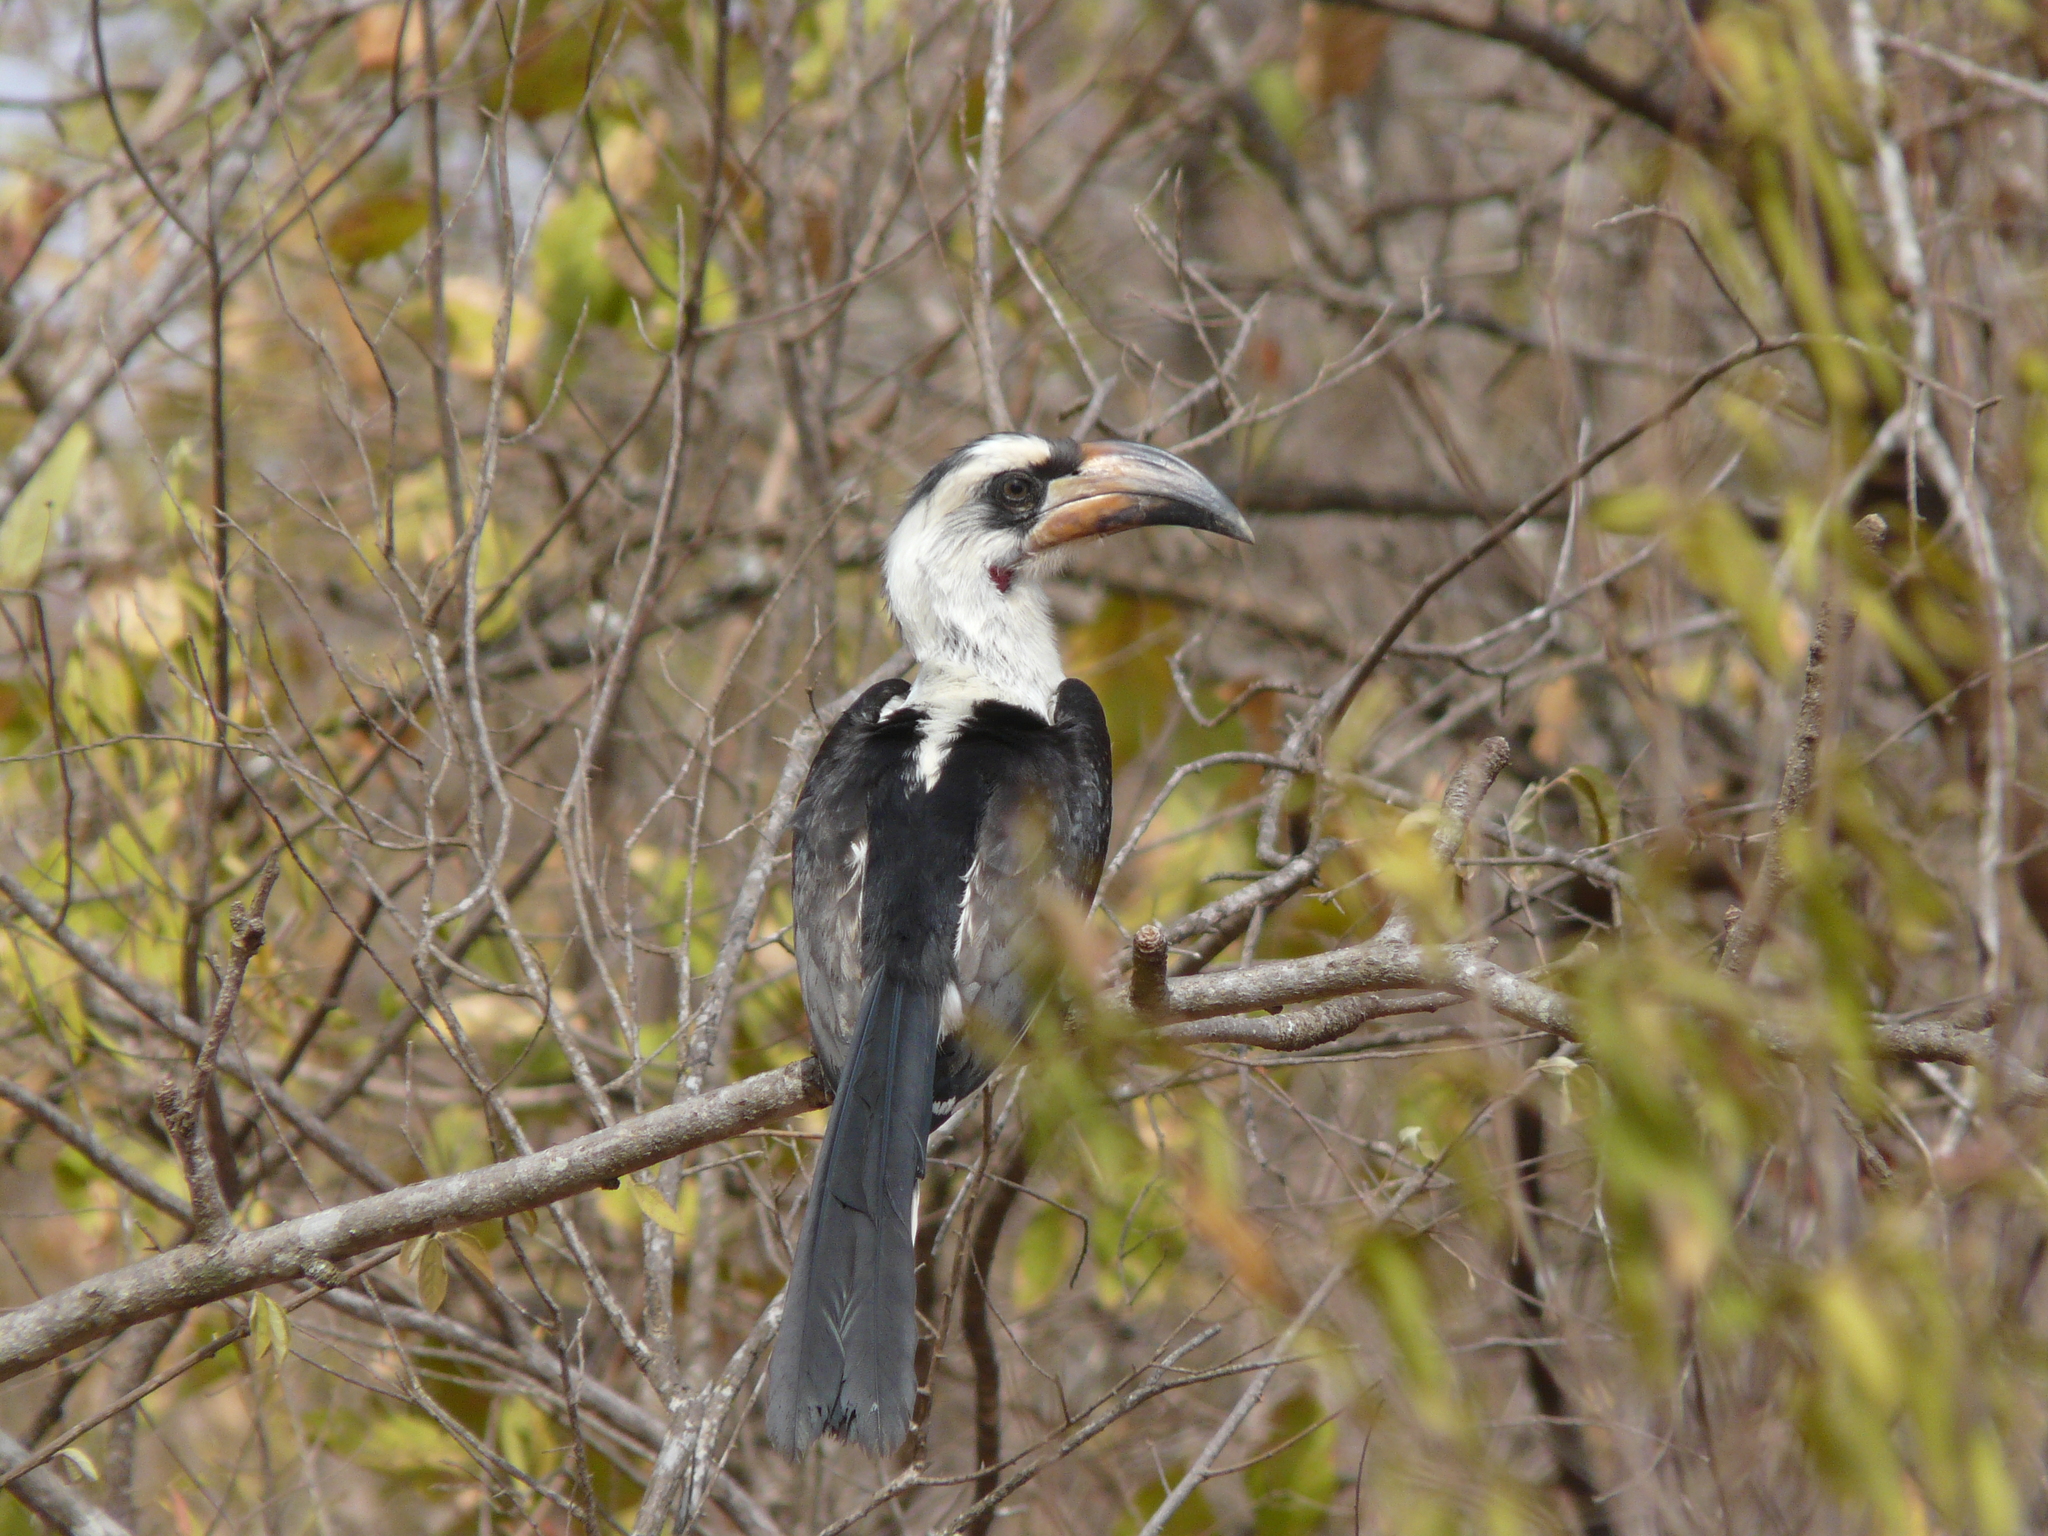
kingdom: Animalia
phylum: Chordata
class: Aves
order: Bucerotiformes
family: Bucerotidae
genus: Tockus
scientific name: Tockus deckeni
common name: Von der decken's hornbill
